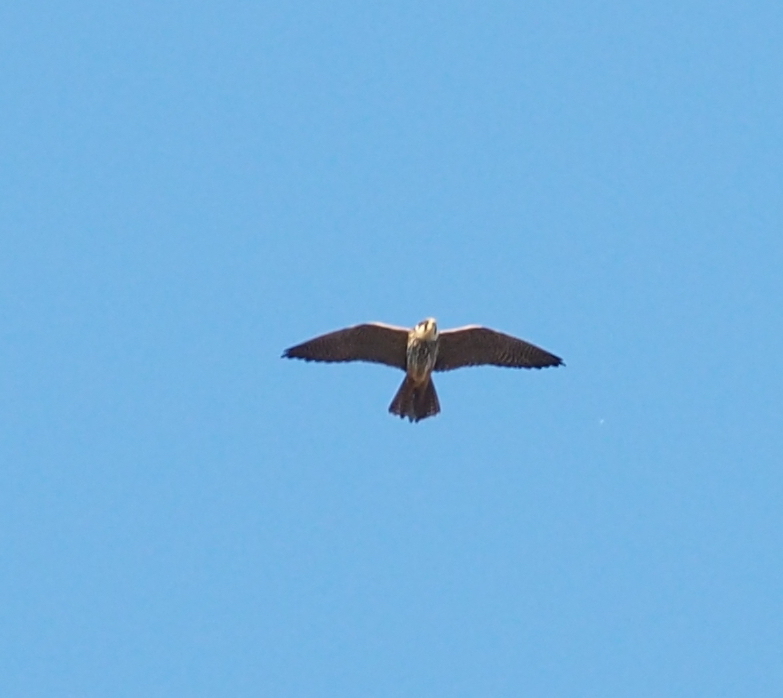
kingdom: Animalia
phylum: Chordata
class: Aves
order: Falconiformes
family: Falconidae
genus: Falco
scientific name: Falco subbuteo
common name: Eurasian hobby
